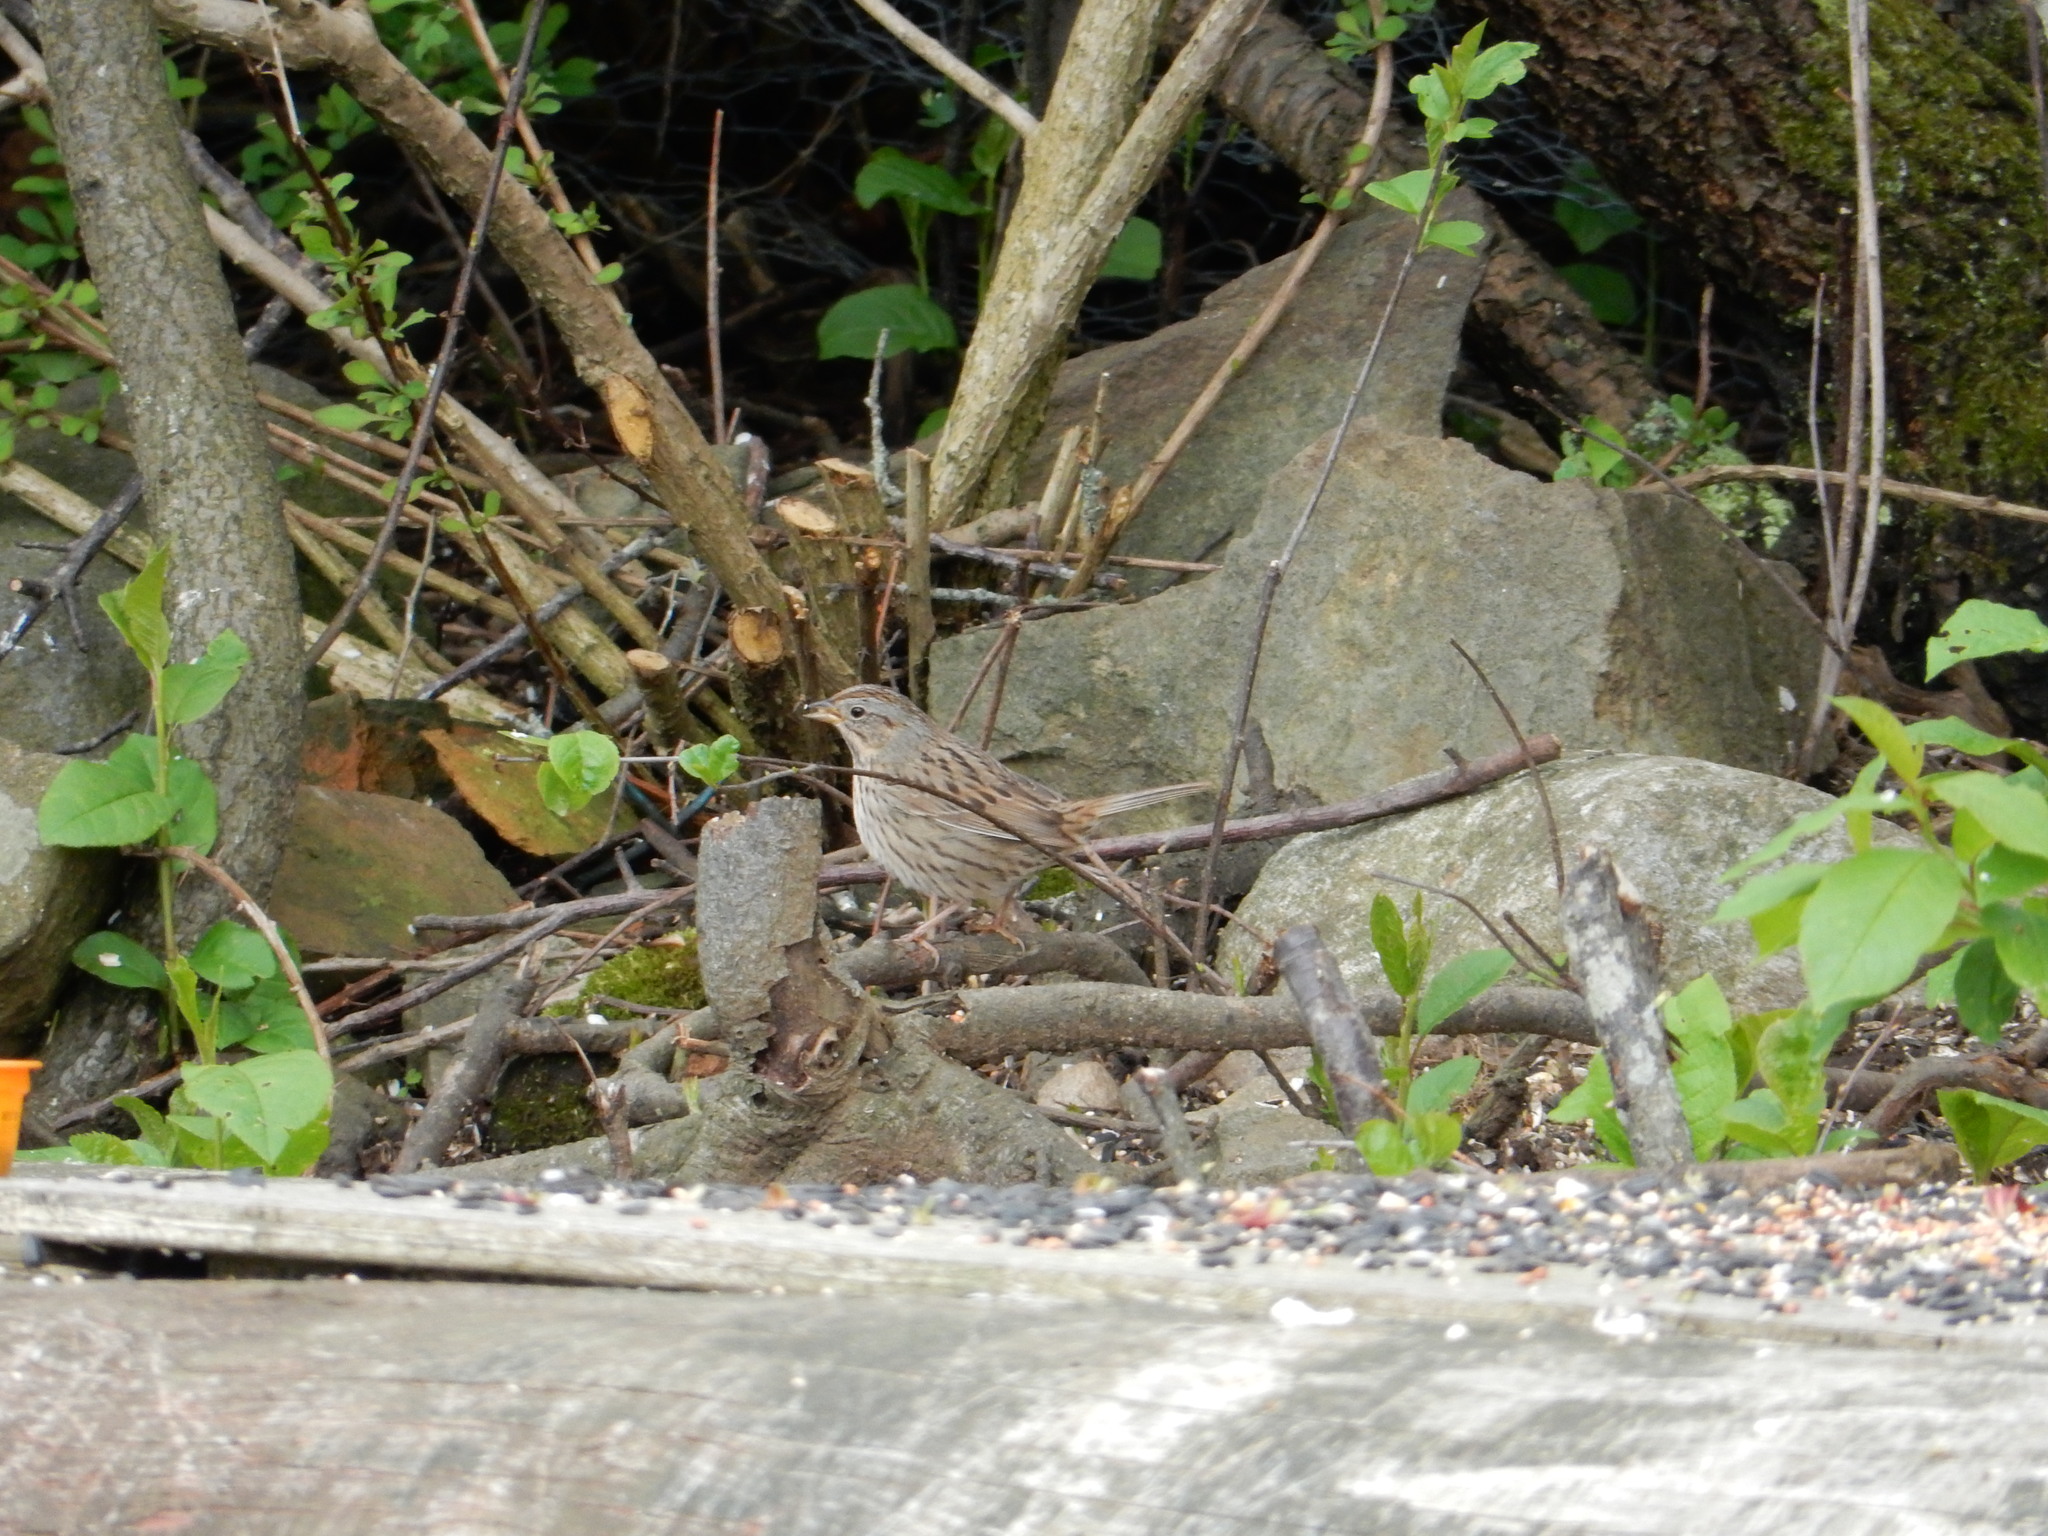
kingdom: Animalia
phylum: Chordata
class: Aves
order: Passeriformes
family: Passerellidae
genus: Melospiza
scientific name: Melospiza lincolnii
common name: Lincoln's sparrow
